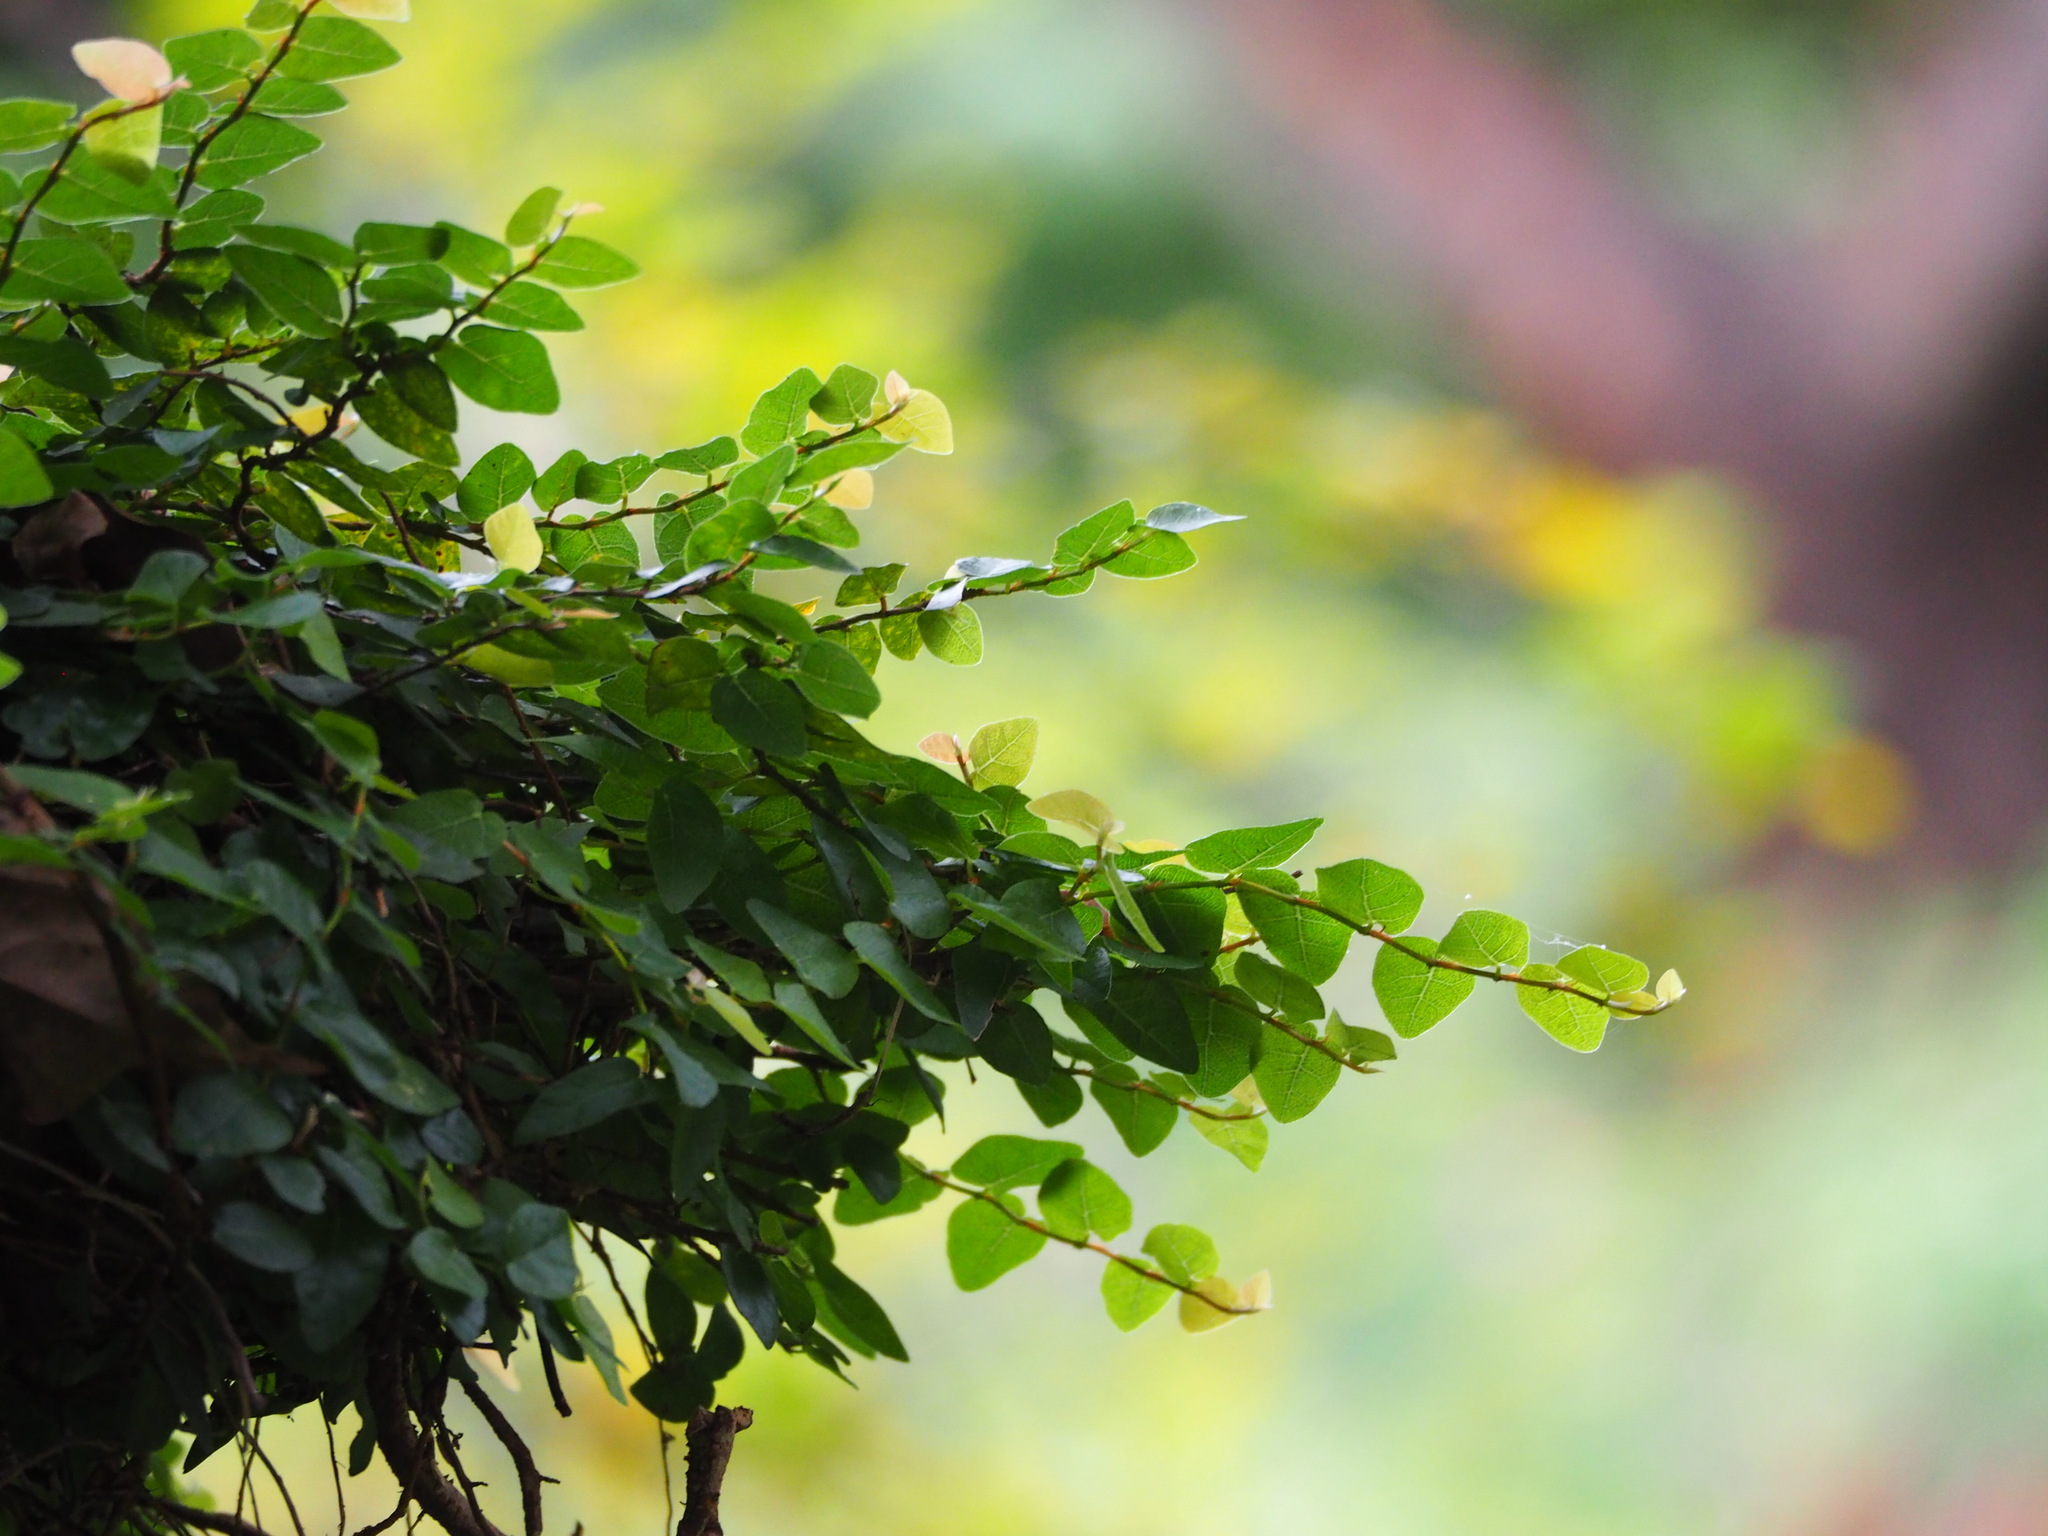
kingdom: Plantae
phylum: Tracheophyta
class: Magnoliopsida
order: Rosales
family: Moraceae
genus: Ficus
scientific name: Ficus pumila
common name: Climbingfig
